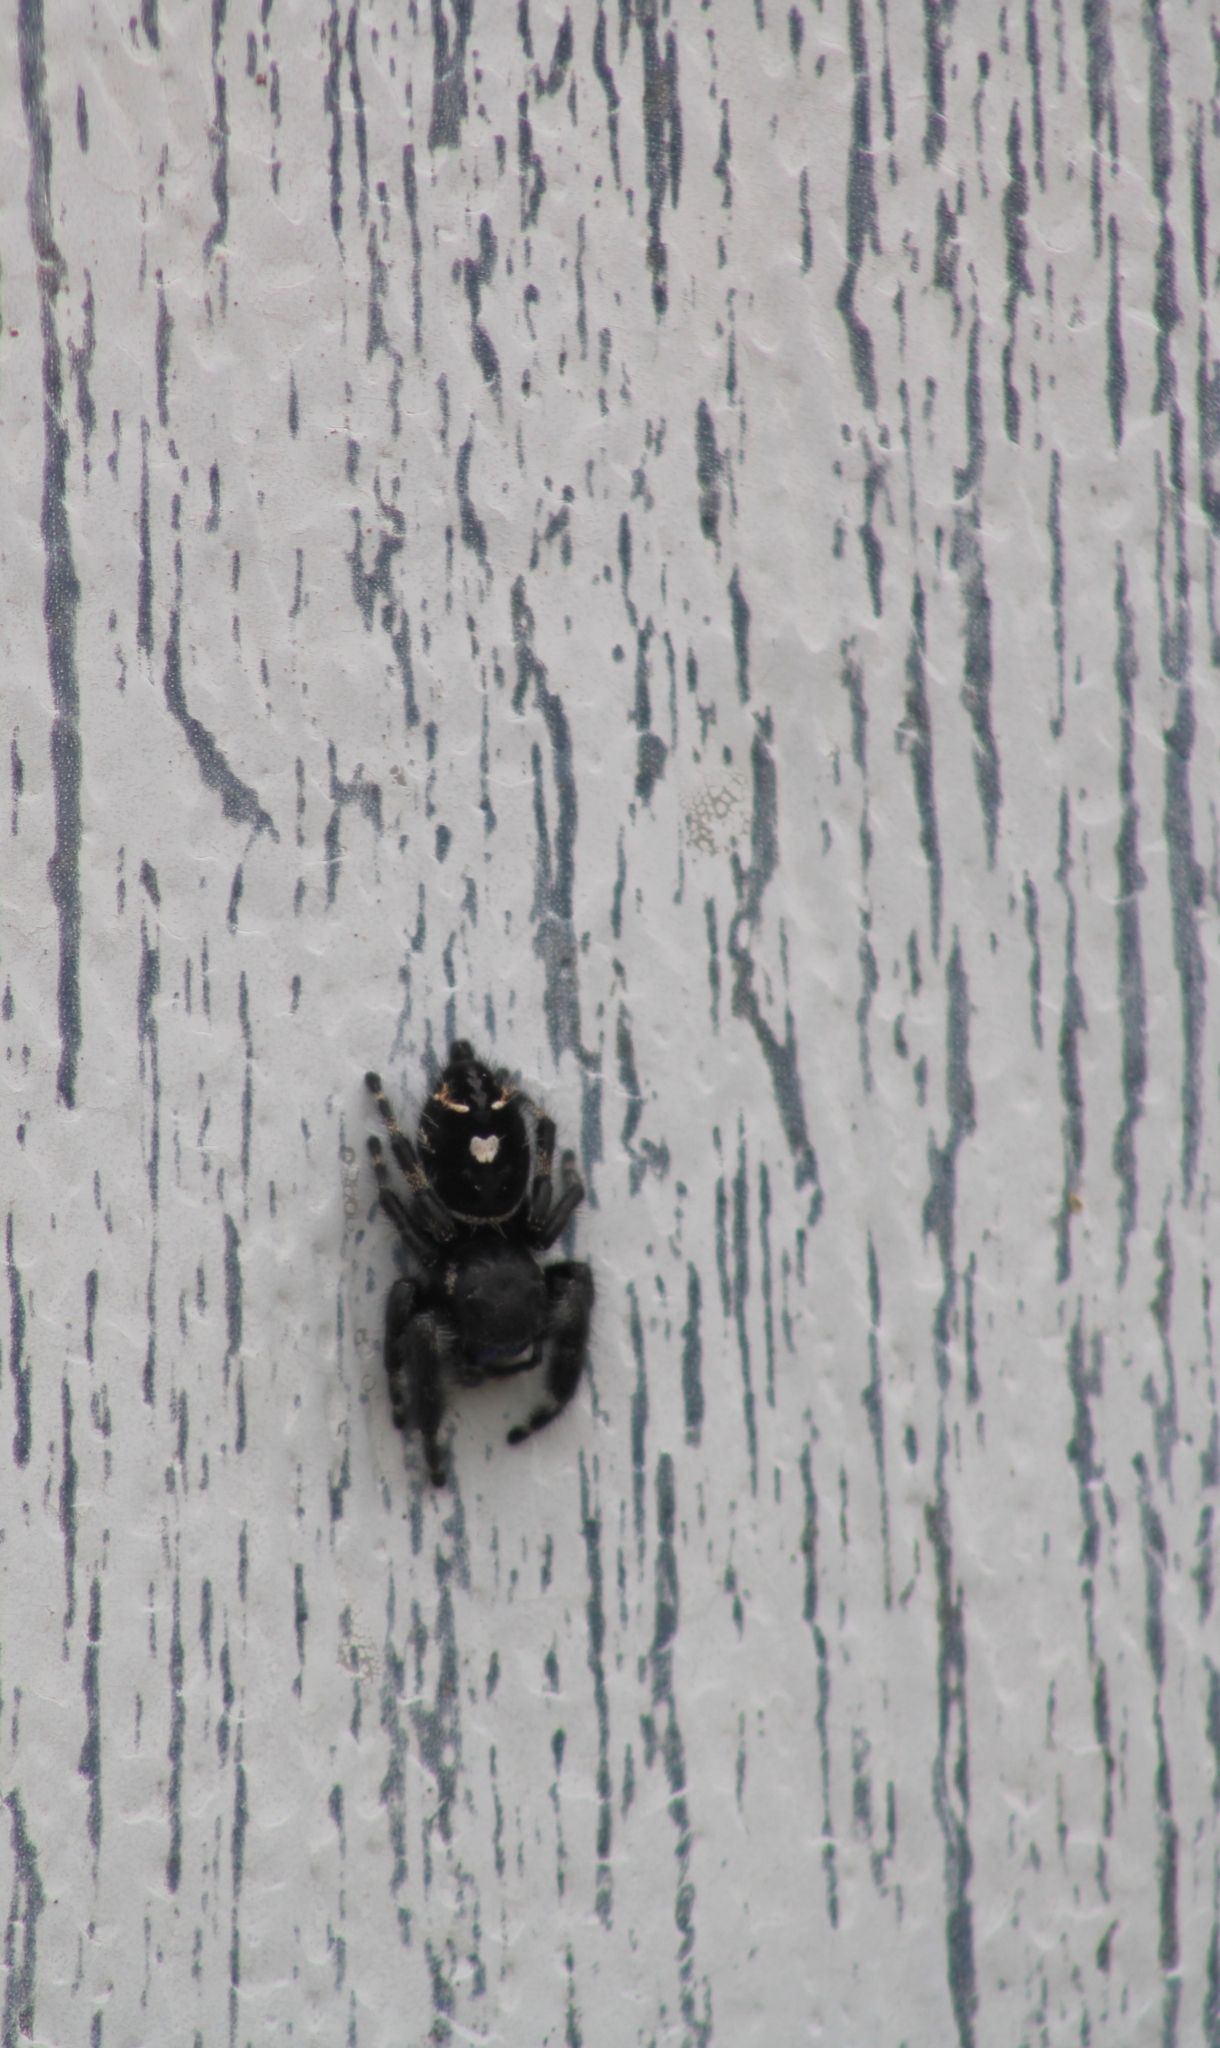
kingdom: Animalia
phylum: Arthropoda
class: Arachnida
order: Araneae
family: Salticidae
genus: Phidippus
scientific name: Phidippus audax
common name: Bold jumper
